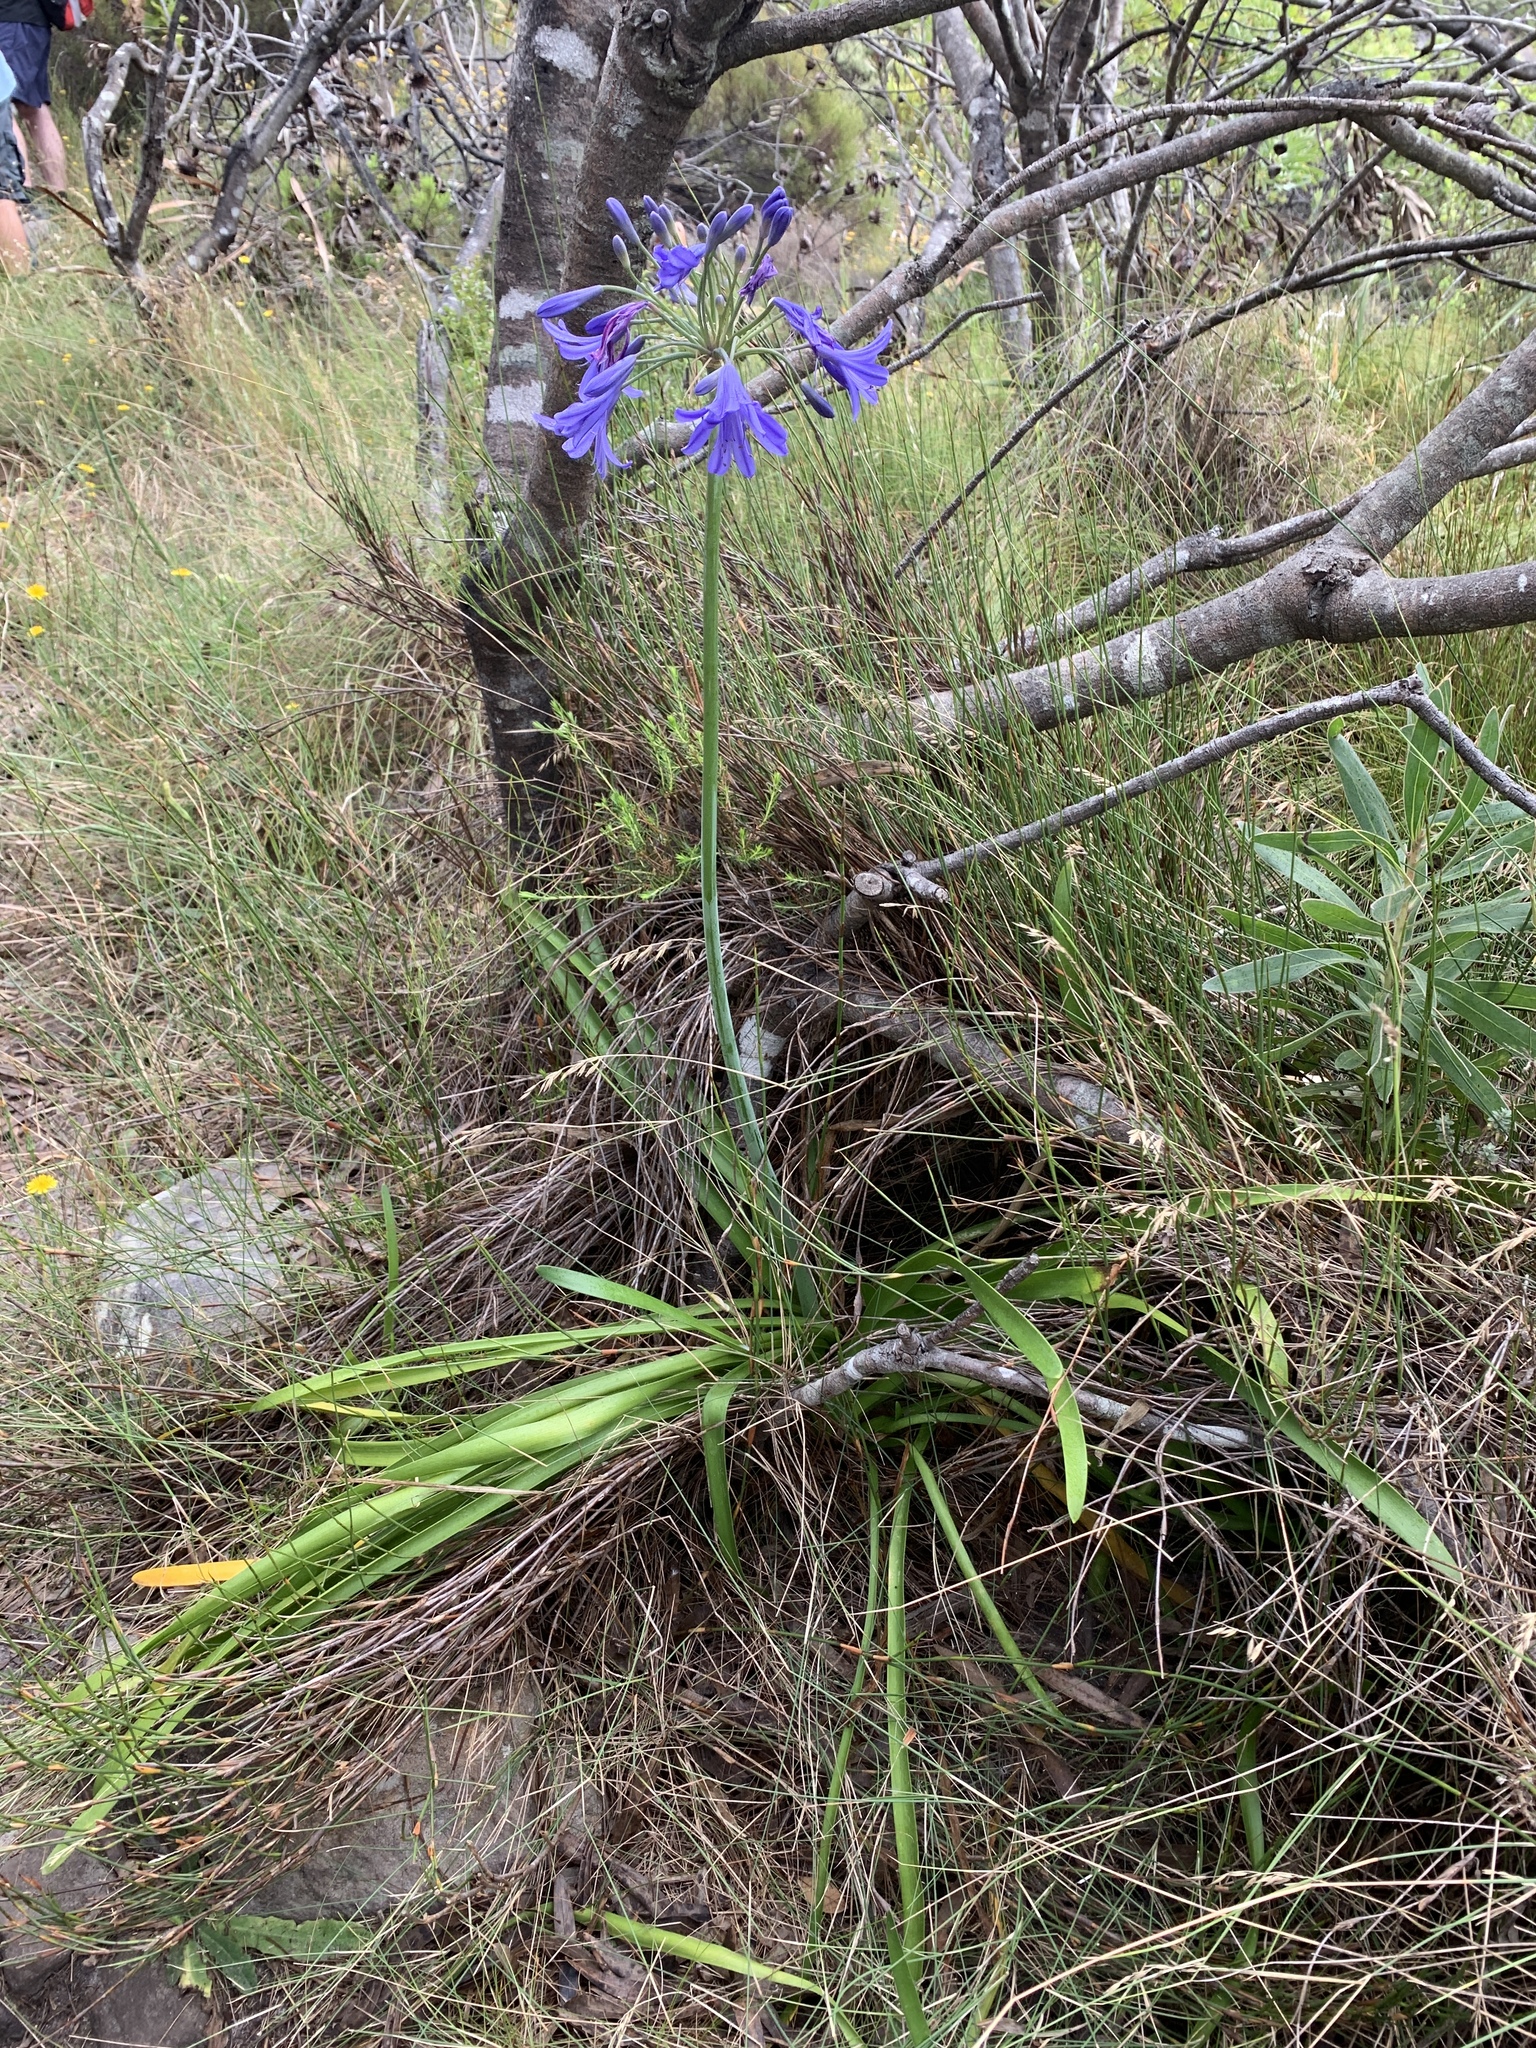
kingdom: Plantae
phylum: Tracheophyta
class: Liliopsida
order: Asparagales
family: Amaryllidaceae
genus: Agapanthus
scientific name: Agapanthus africanus
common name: Lily-of-the-nile
